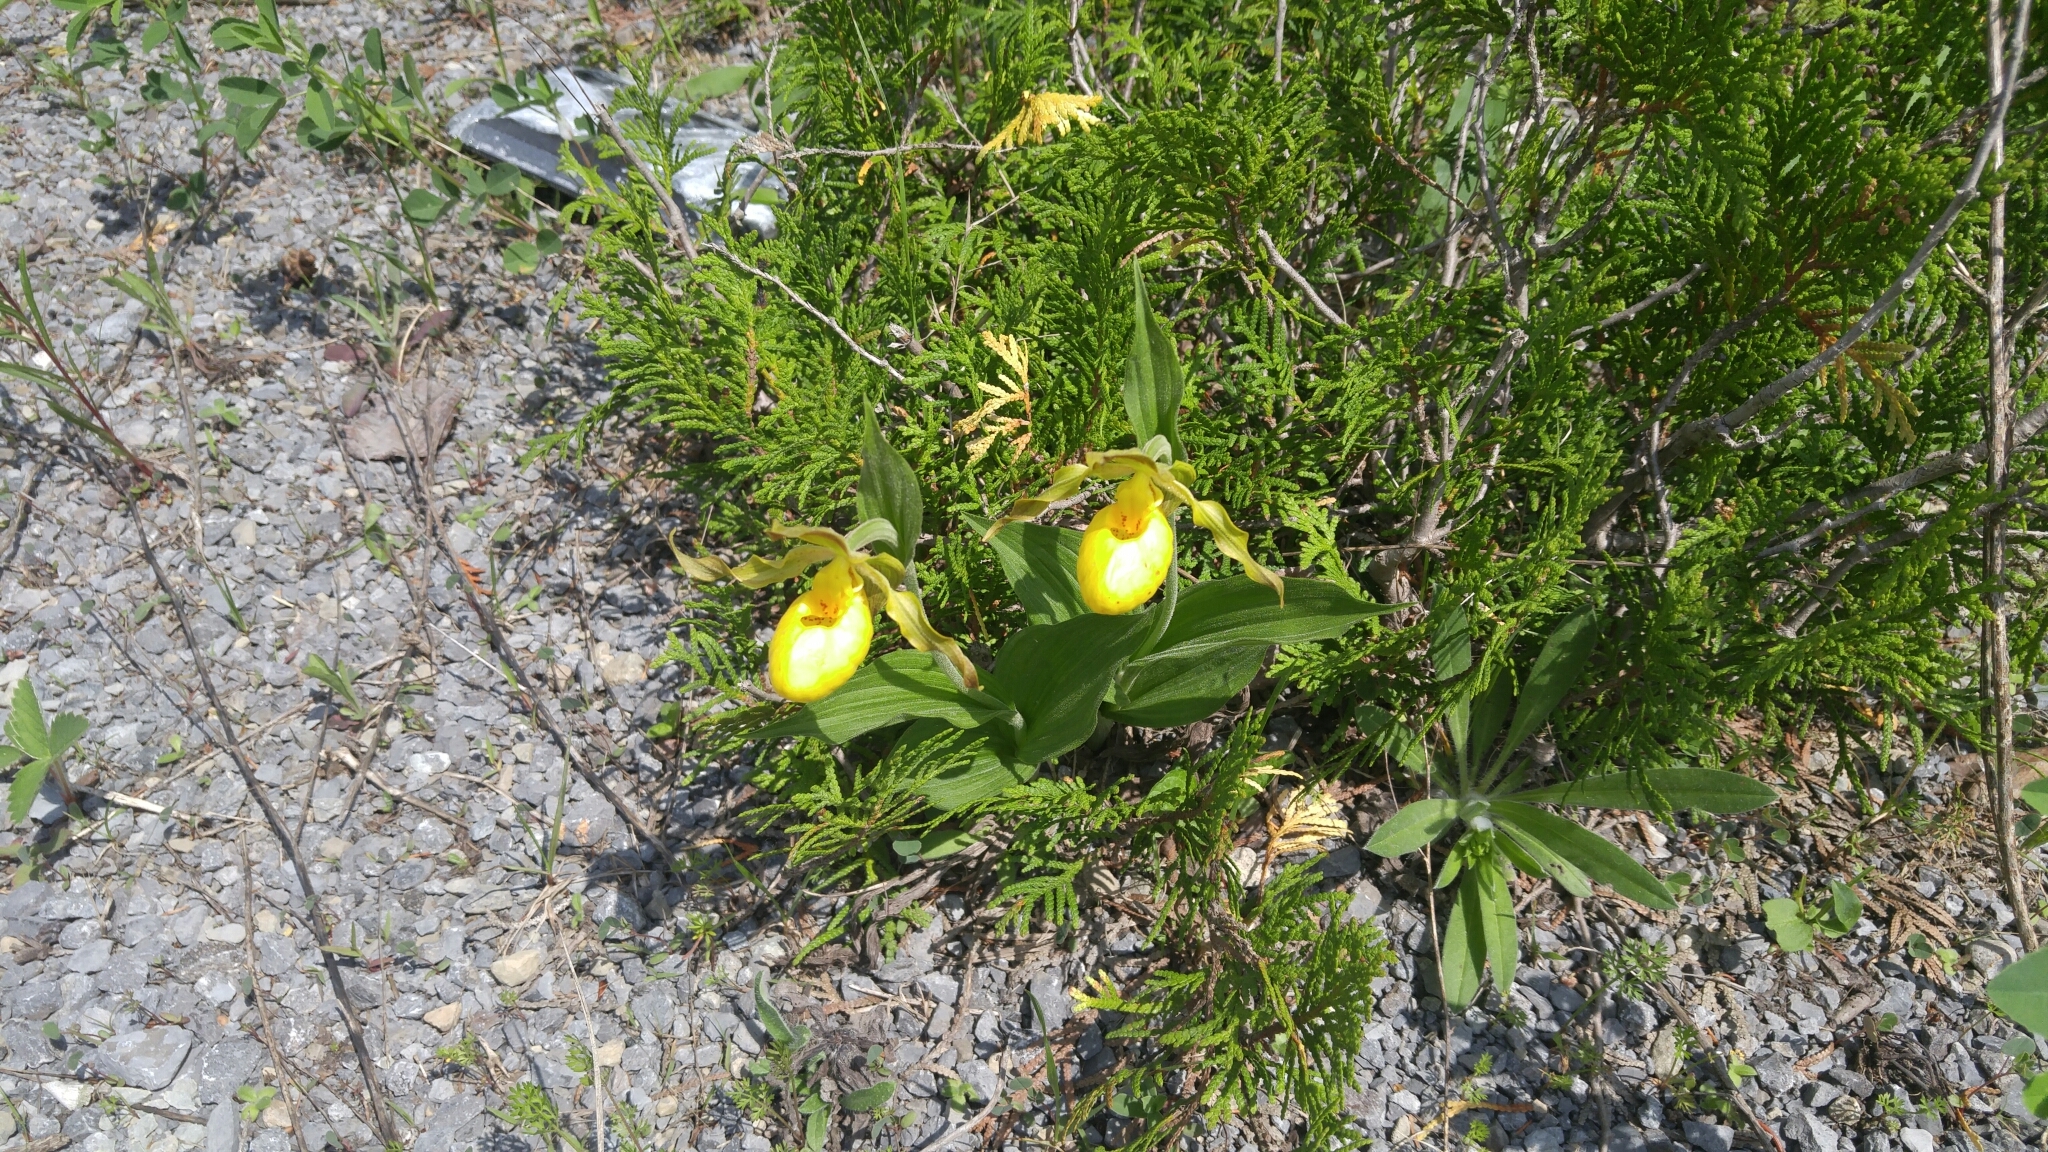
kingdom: Plantae
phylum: Tracheophyta
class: Liliopsida
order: Asparagales
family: Orchidaceae
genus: Cypripedium
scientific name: Cypripedium parviflorum
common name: American yellow lady's-slipper
